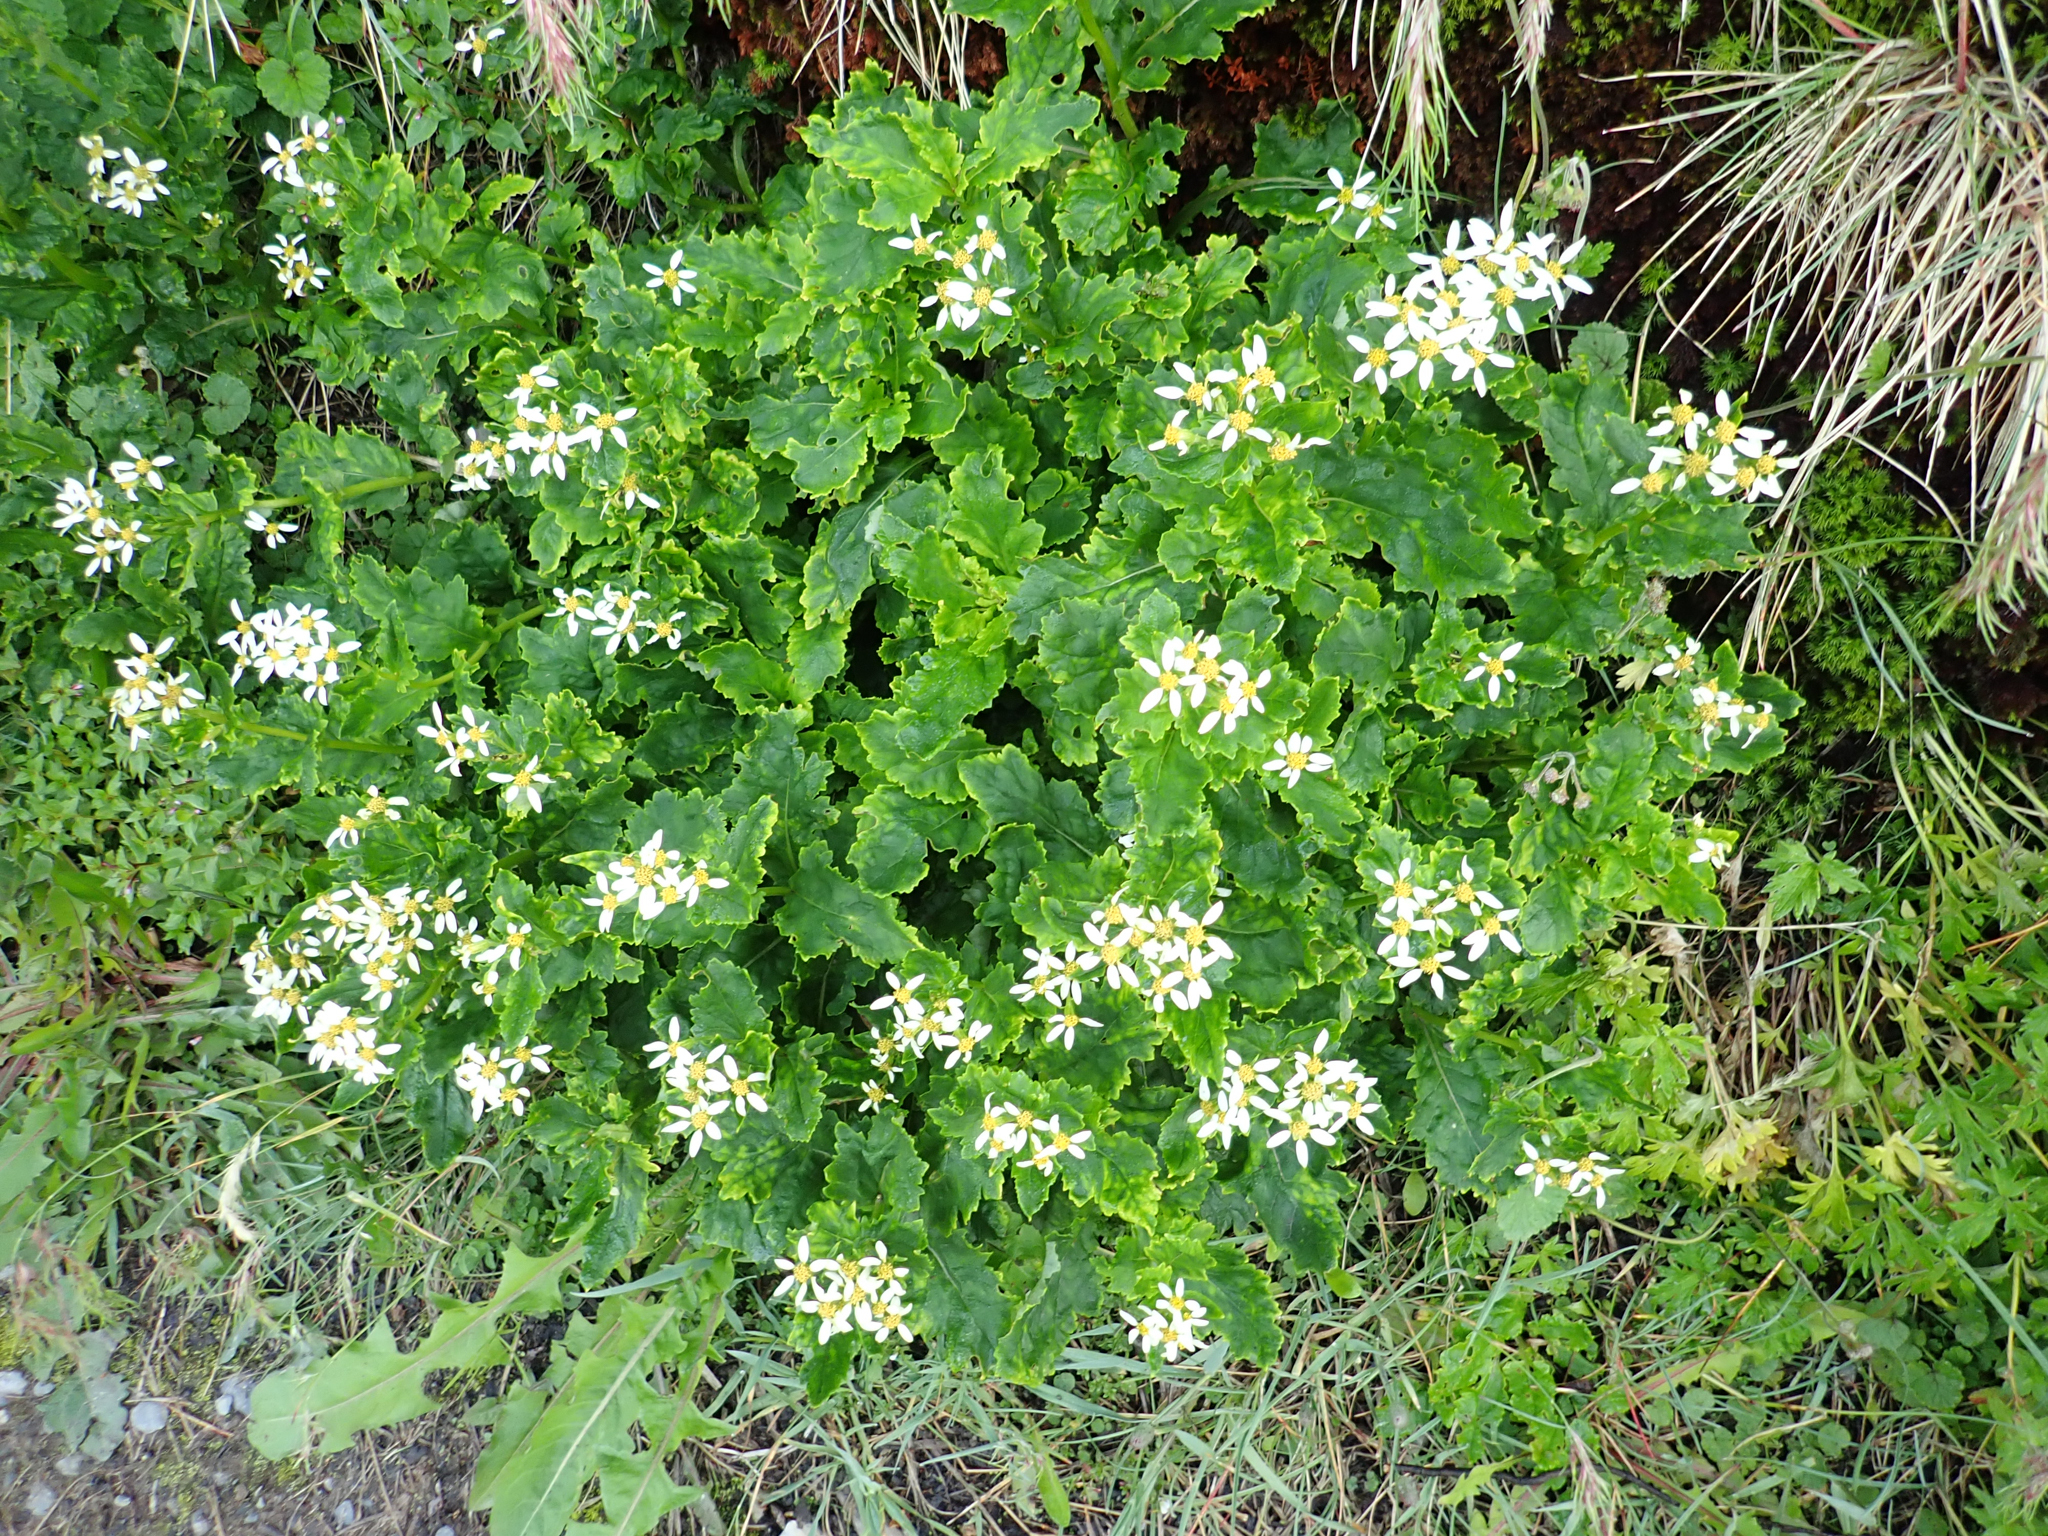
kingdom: Plantae
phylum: Tracheophyta
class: Magnoliopsida
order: Asterales
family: Asteraceae
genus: Iocenes
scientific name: Iocenes virens
